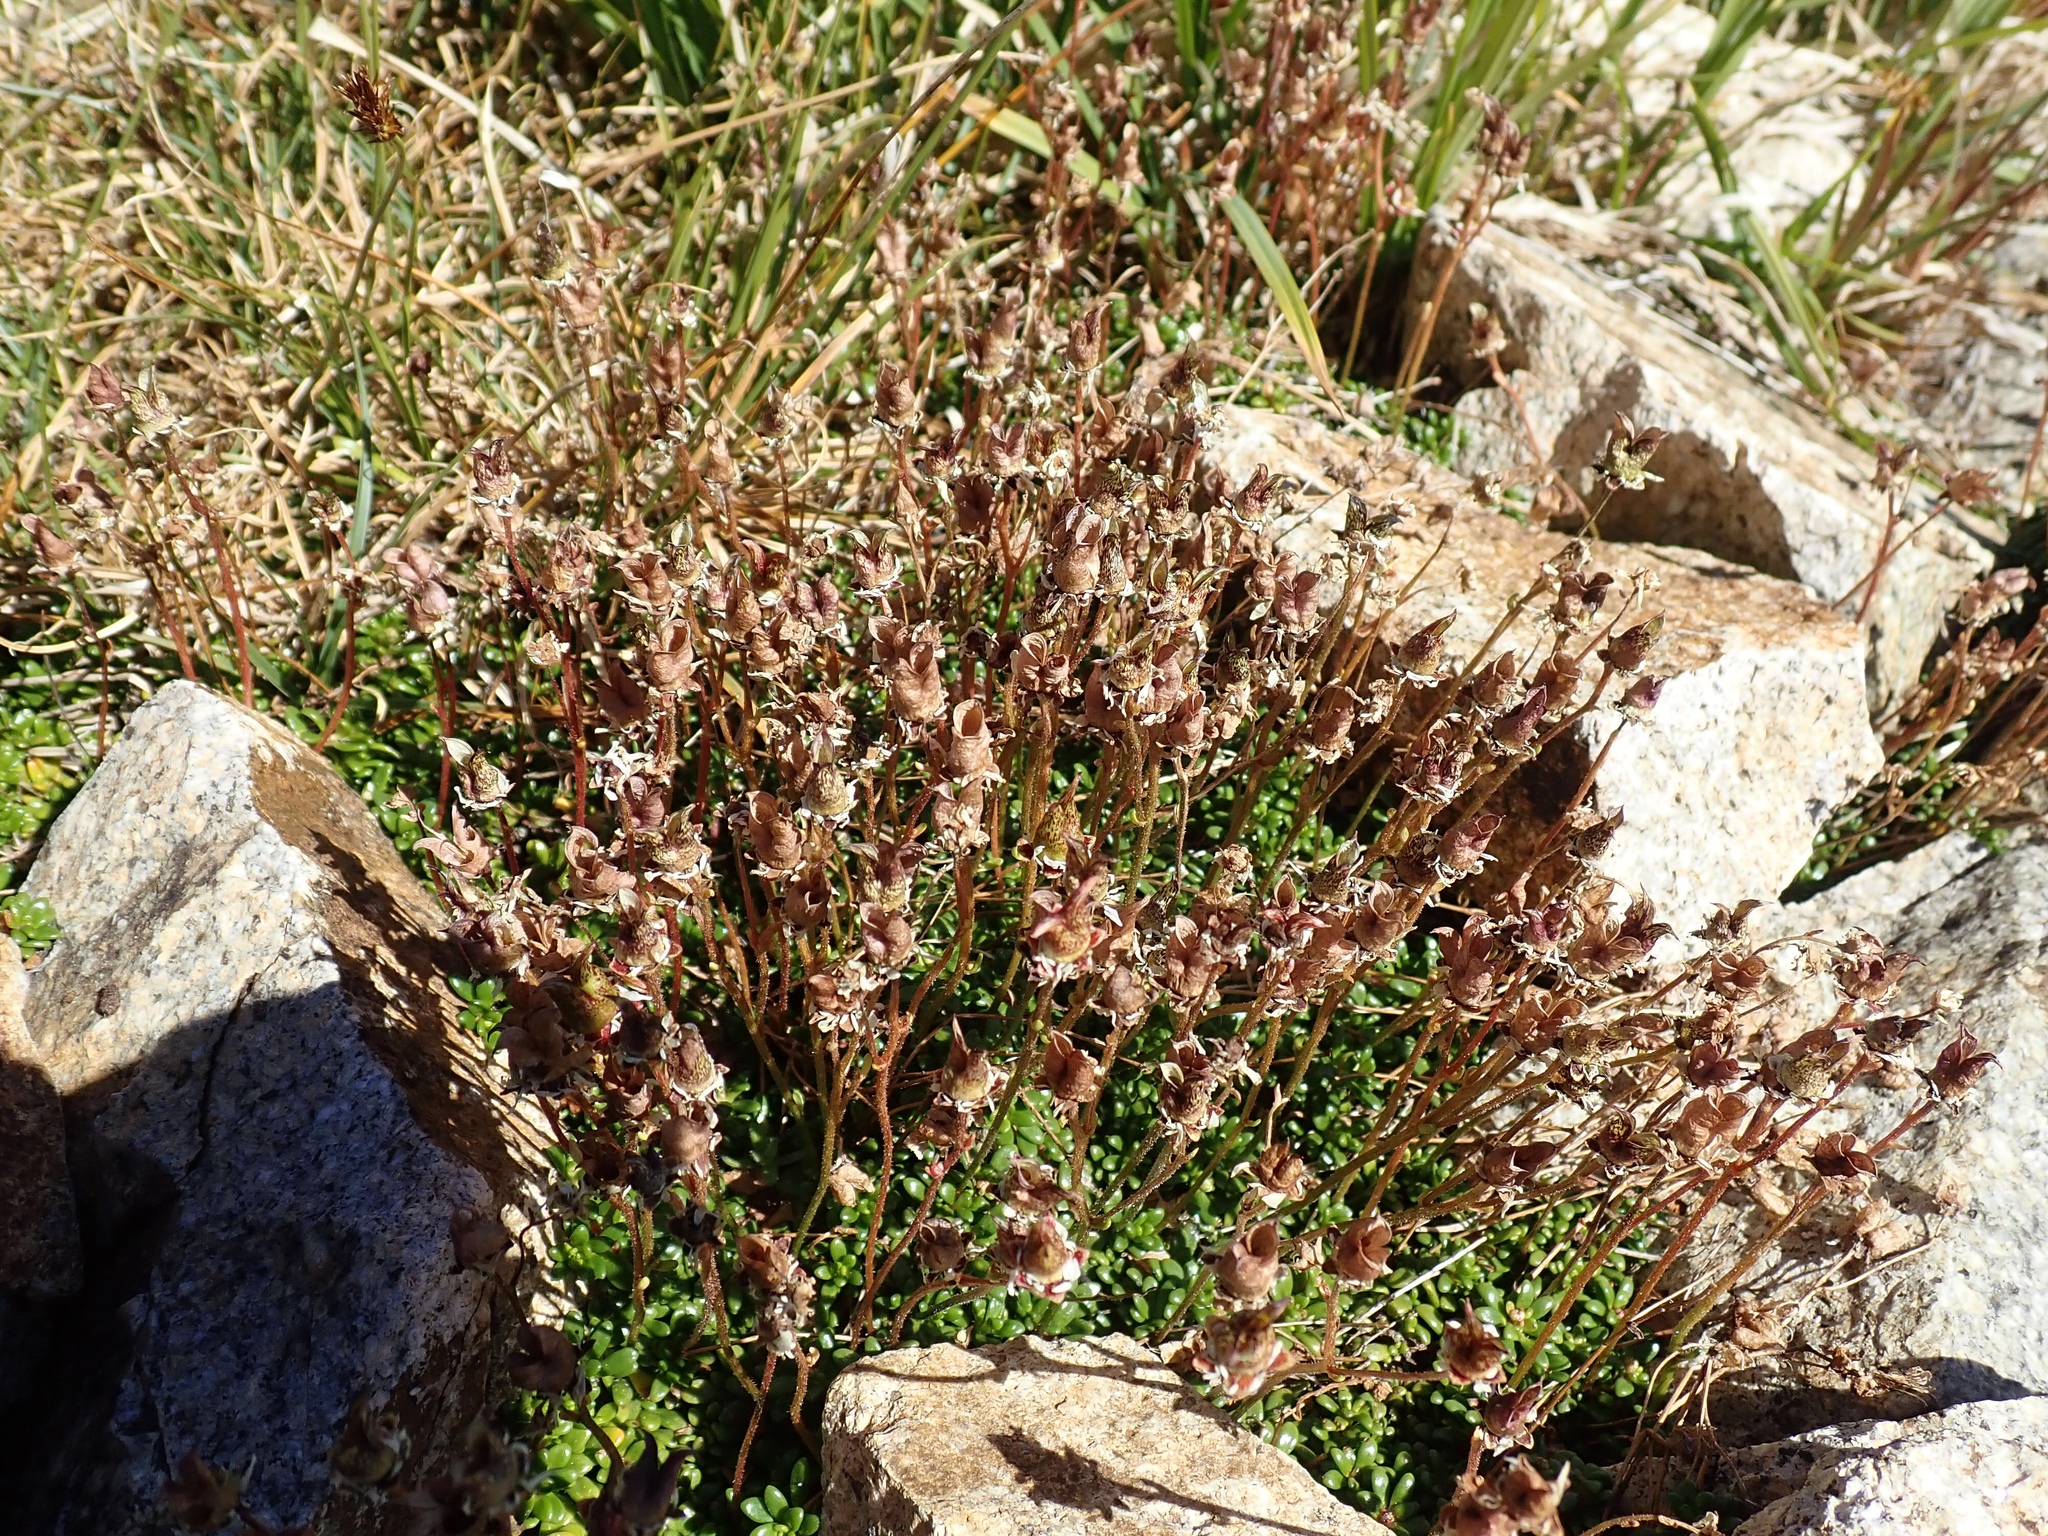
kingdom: Plantae
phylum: Tracheophyta
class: Magnoliopsida
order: Saxifragales
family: Saxifragaceae
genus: Micranthes
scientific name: Micranthes tolmiei
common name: Tolmie's saxifrage
